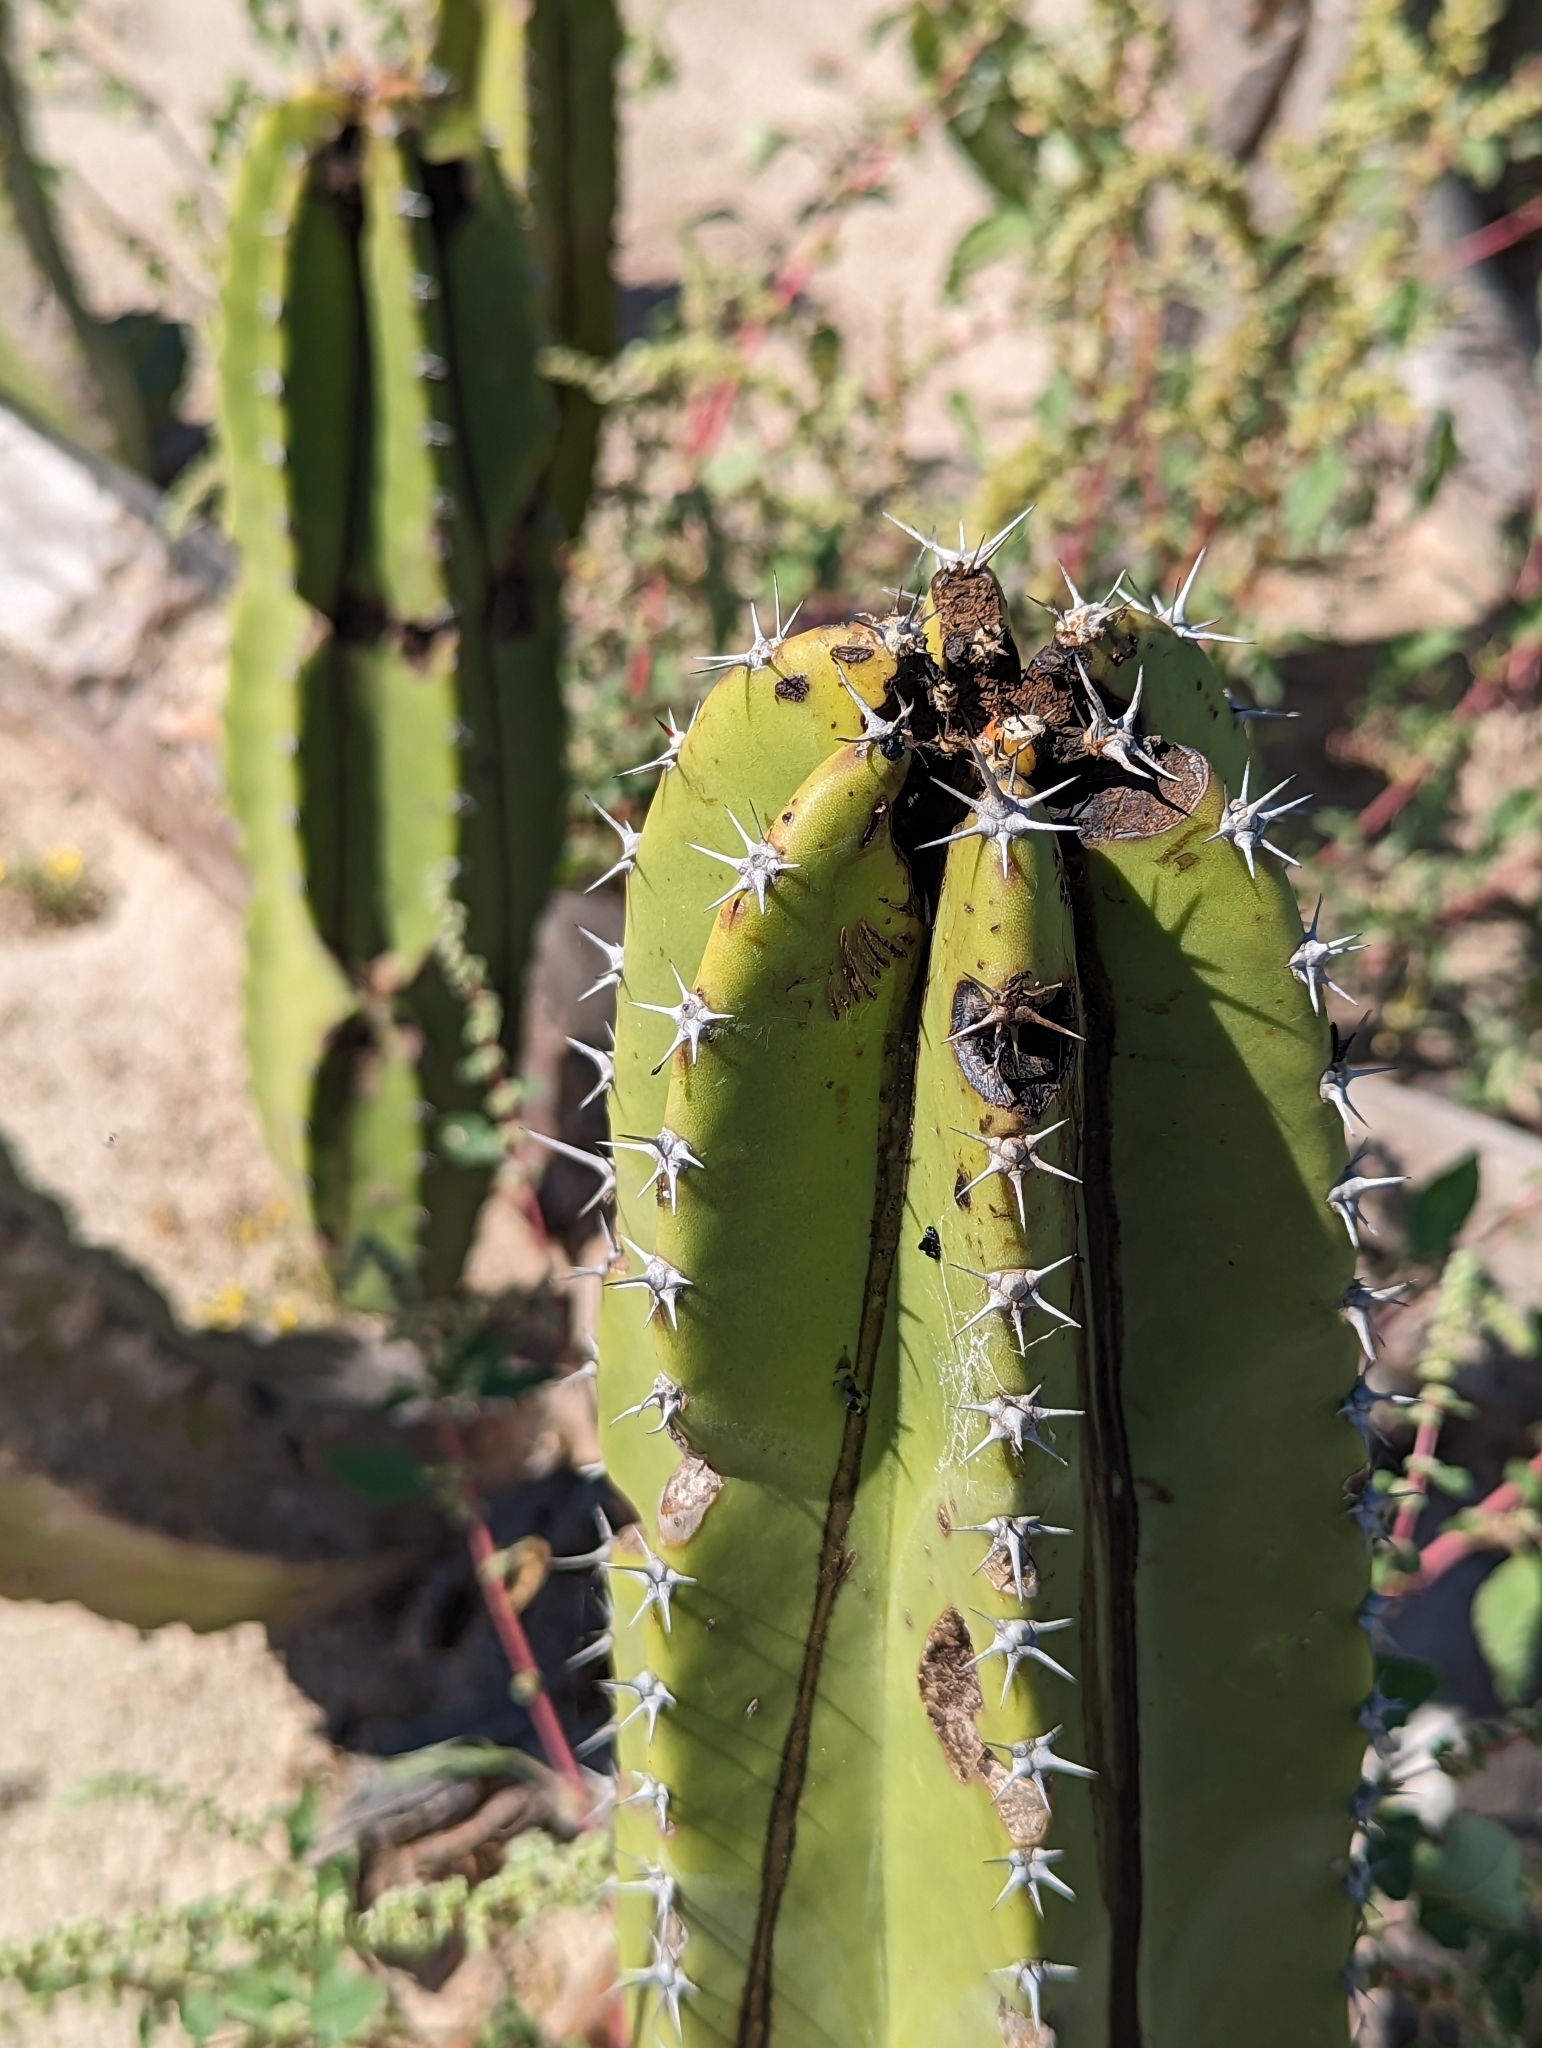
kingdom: Plantae
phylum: Tracheophyta
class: Magnoliopsida
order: Caryophyllales
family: Cactaceae
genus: Pachycereus
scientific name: Pachycereus schottii
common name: Senita cactus
